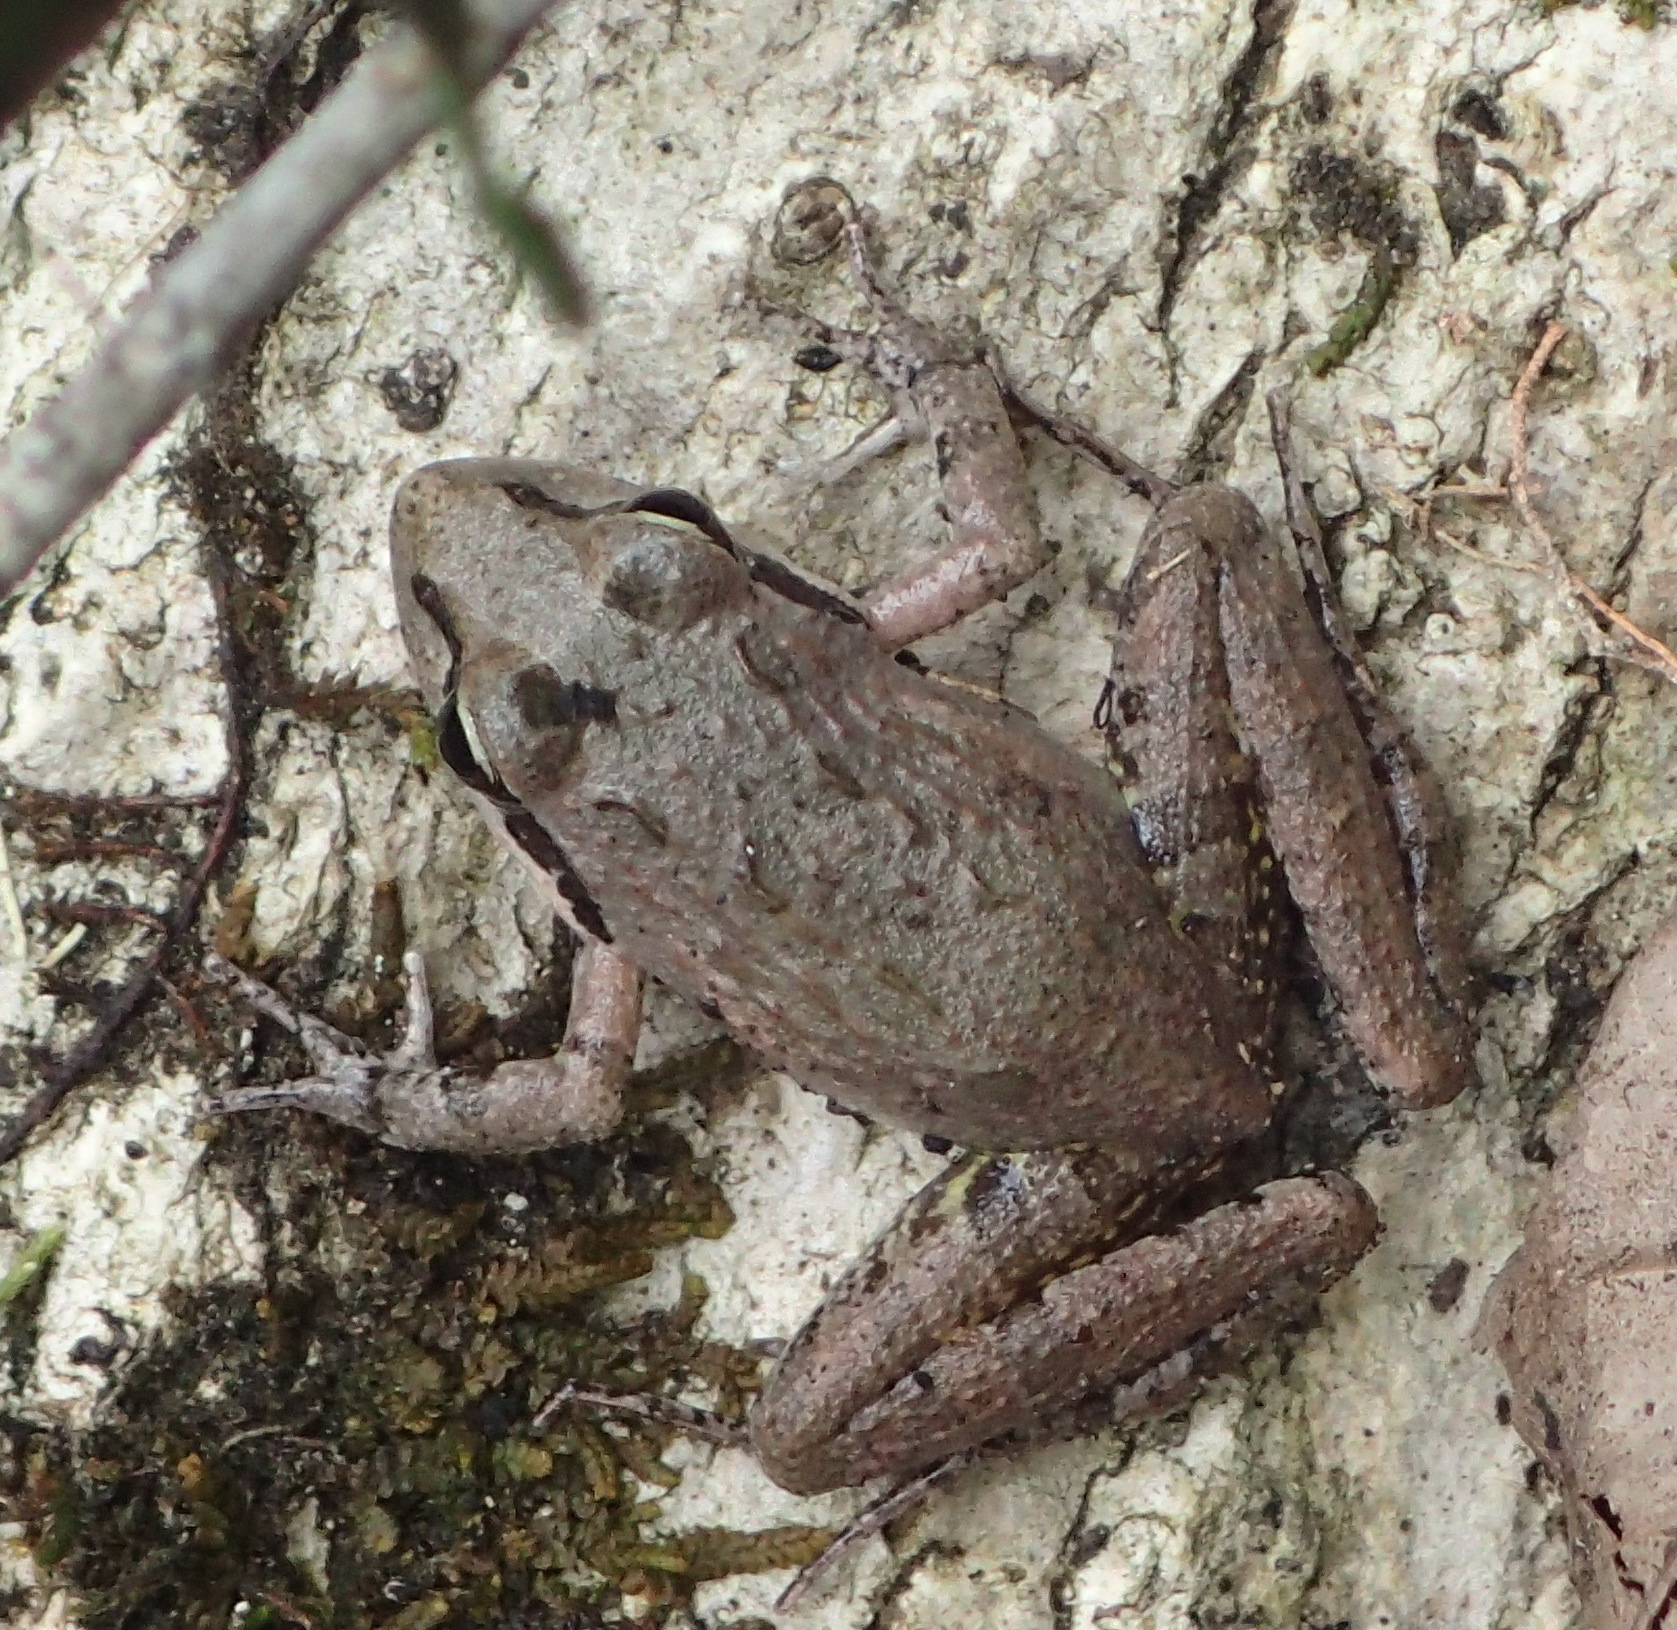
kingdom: Animalia
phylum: Chordata
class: Amphibia
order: Anura
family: Pyxicephalidae
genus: Strongylopus
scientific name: Strongylopus grayii
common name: Gray's stream frog
